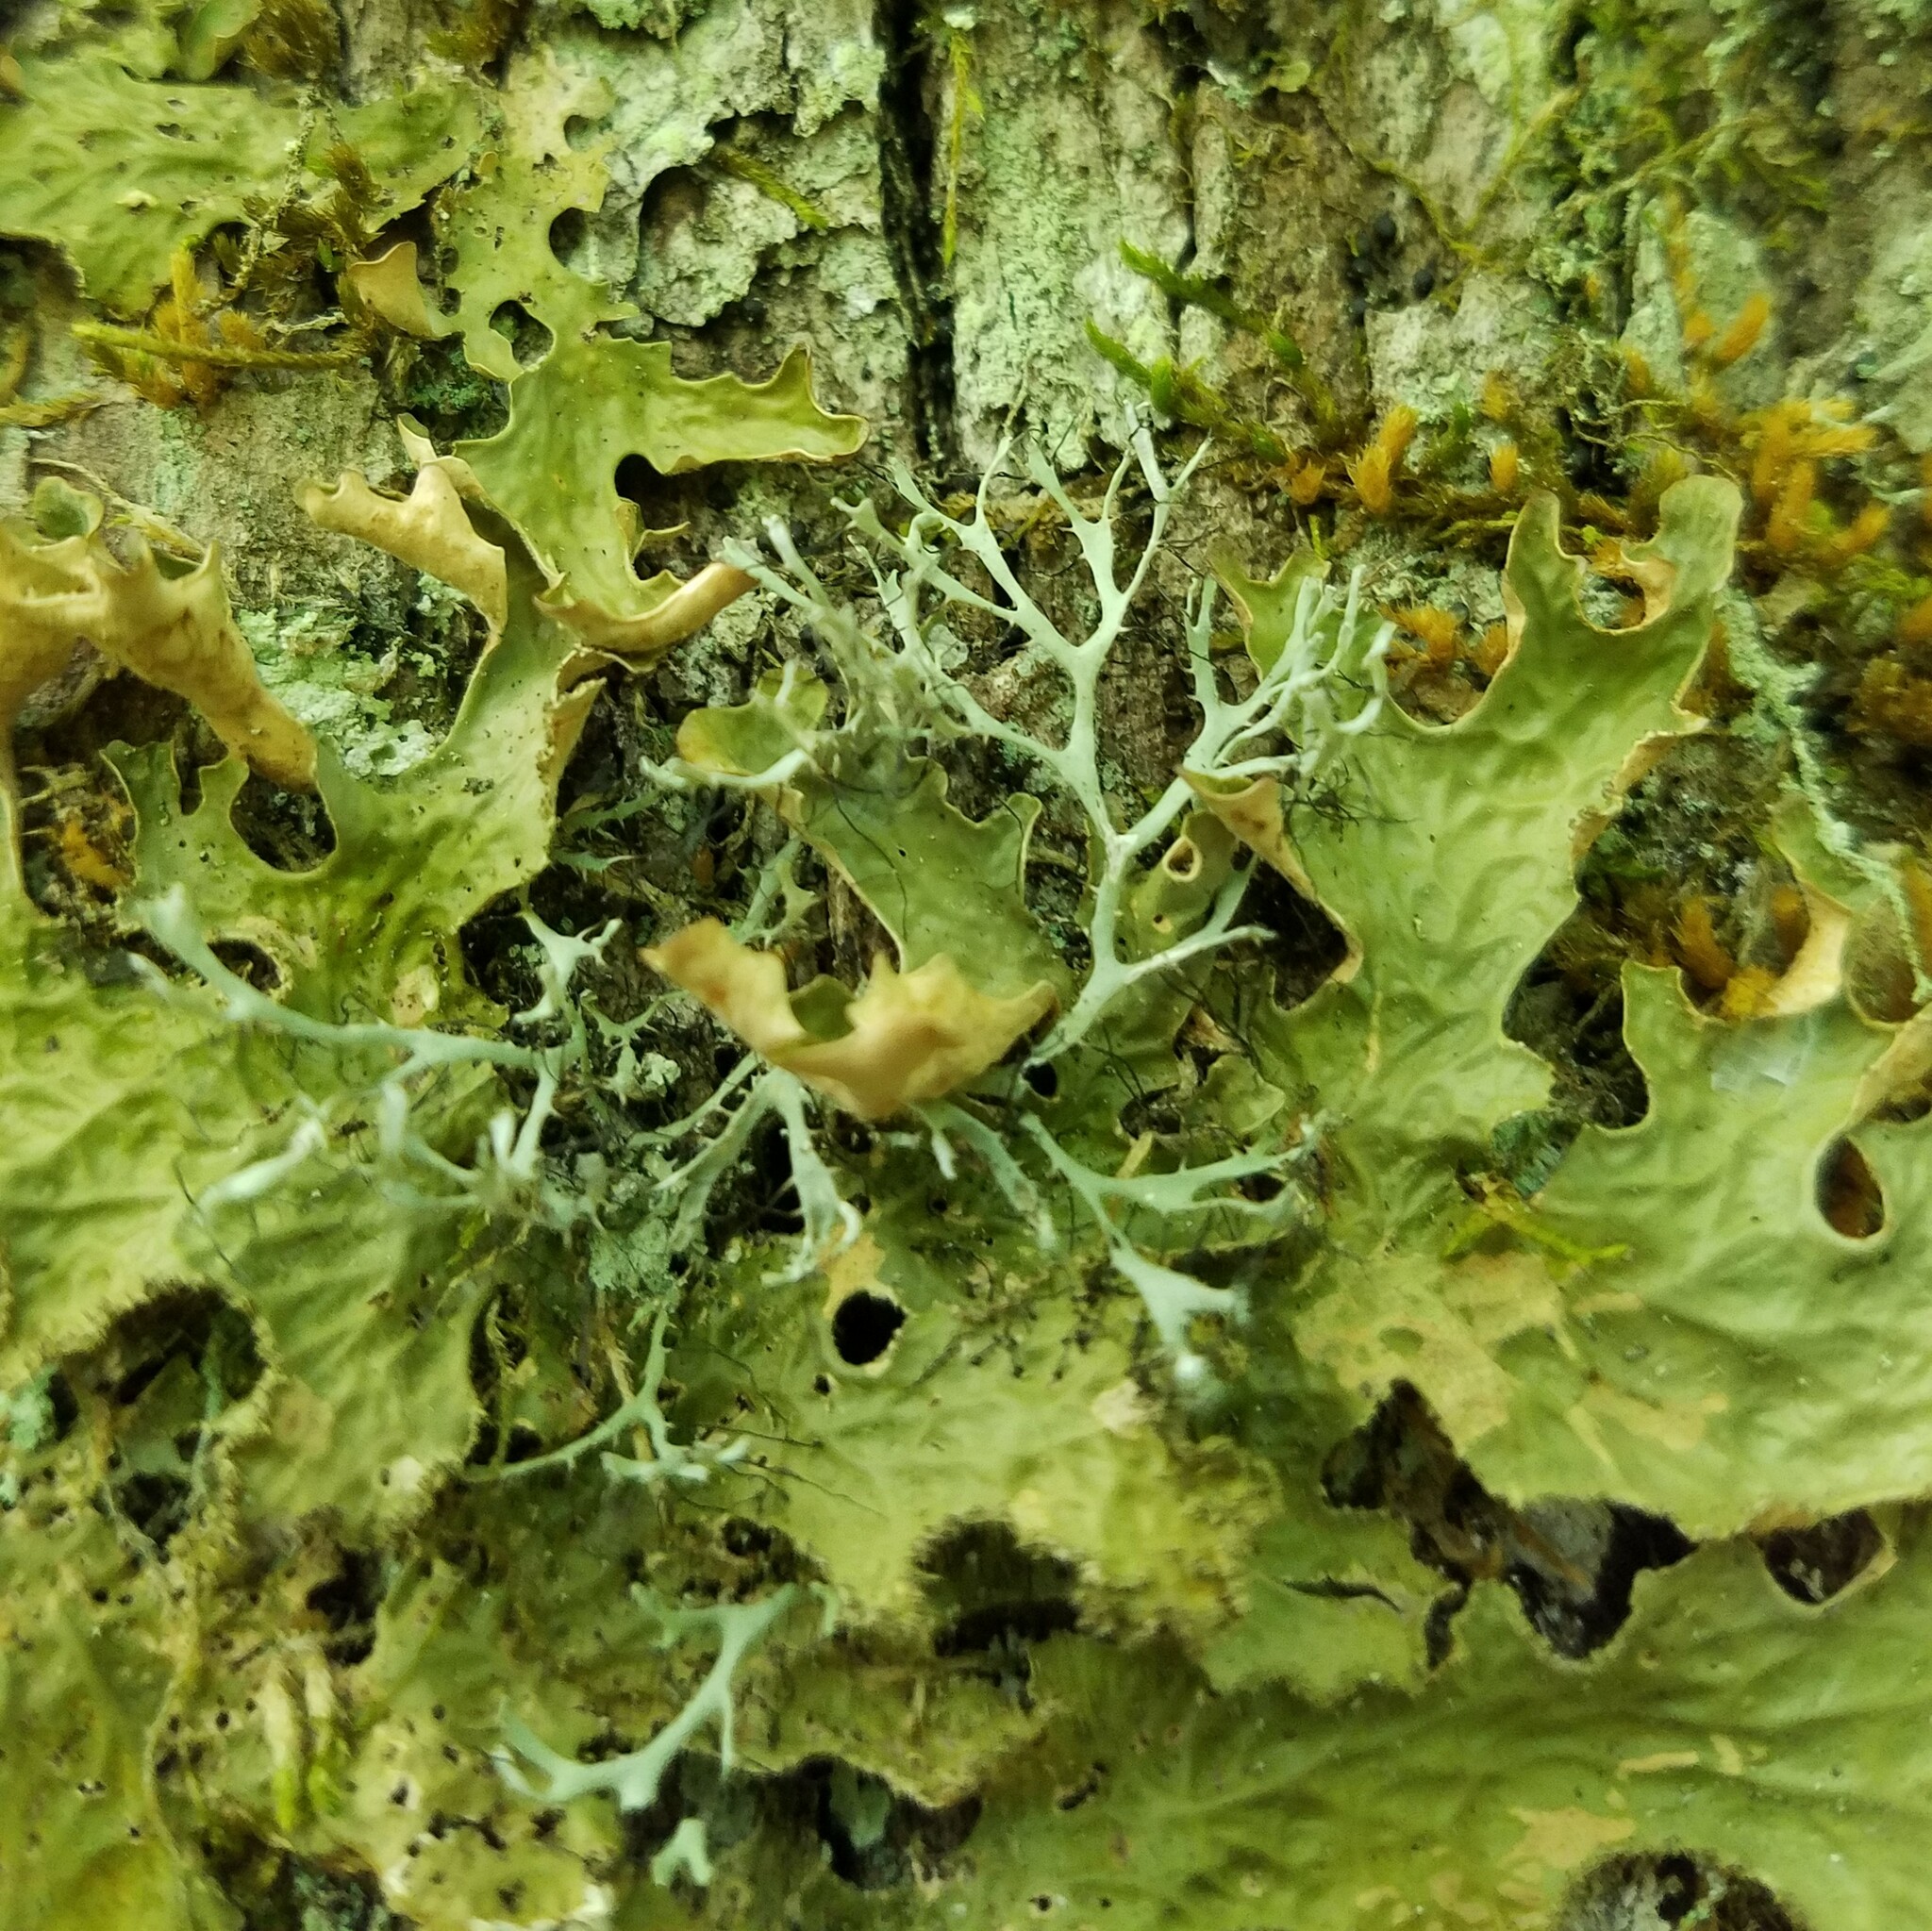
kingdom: Fungi
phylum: Ascomycota
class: Lecanoromycetes
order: Caliciales
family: Physciaceae
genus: Leucodermia
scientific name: Leucodermia leucomelos
